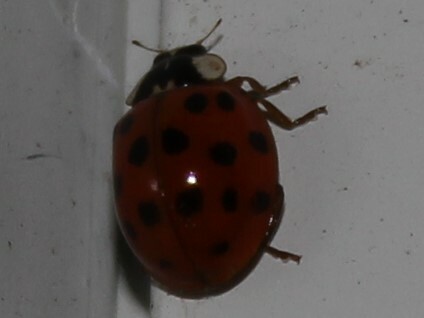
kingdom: Animalia
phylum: Arthropoda
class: Insecta
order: Coleoptera
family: Coccinellidae
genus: Harmonia
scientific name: Harmonia axyridis
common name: Harlequin ladybird
